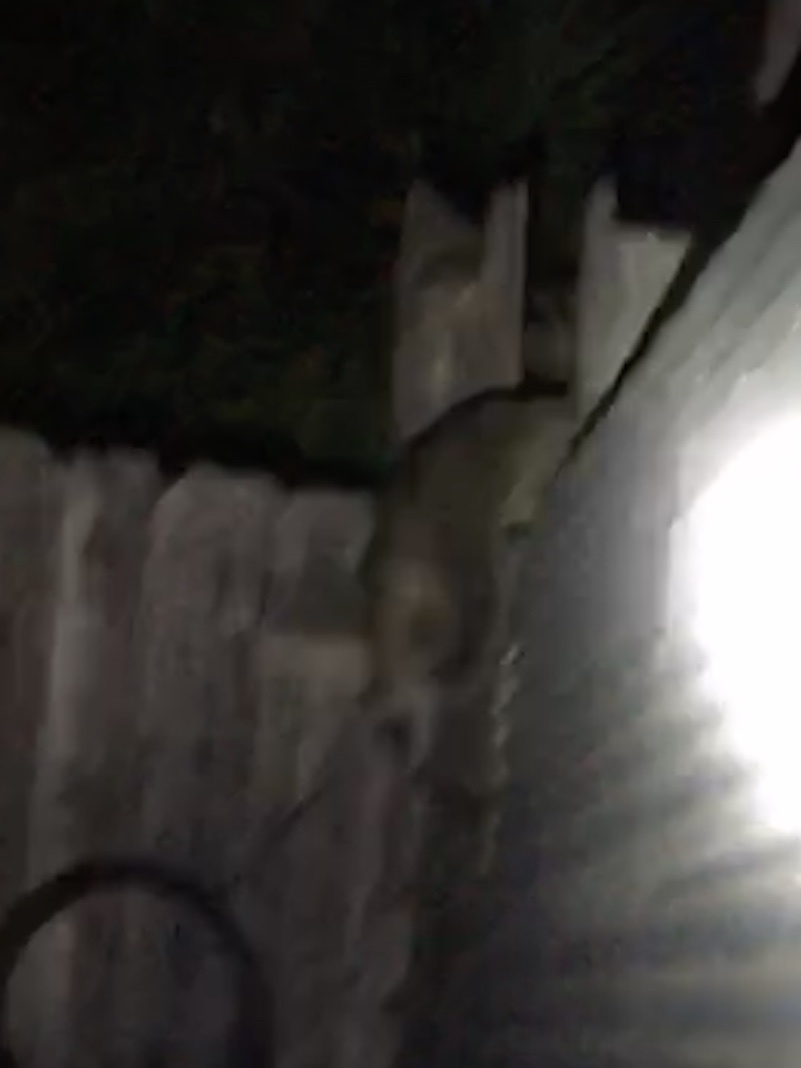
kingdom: Animalia
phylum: Chordata
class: Mammalia
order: Carnivora
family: Procyonidae
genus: Procyon
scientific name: Procyon lotor
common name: Raccoon
